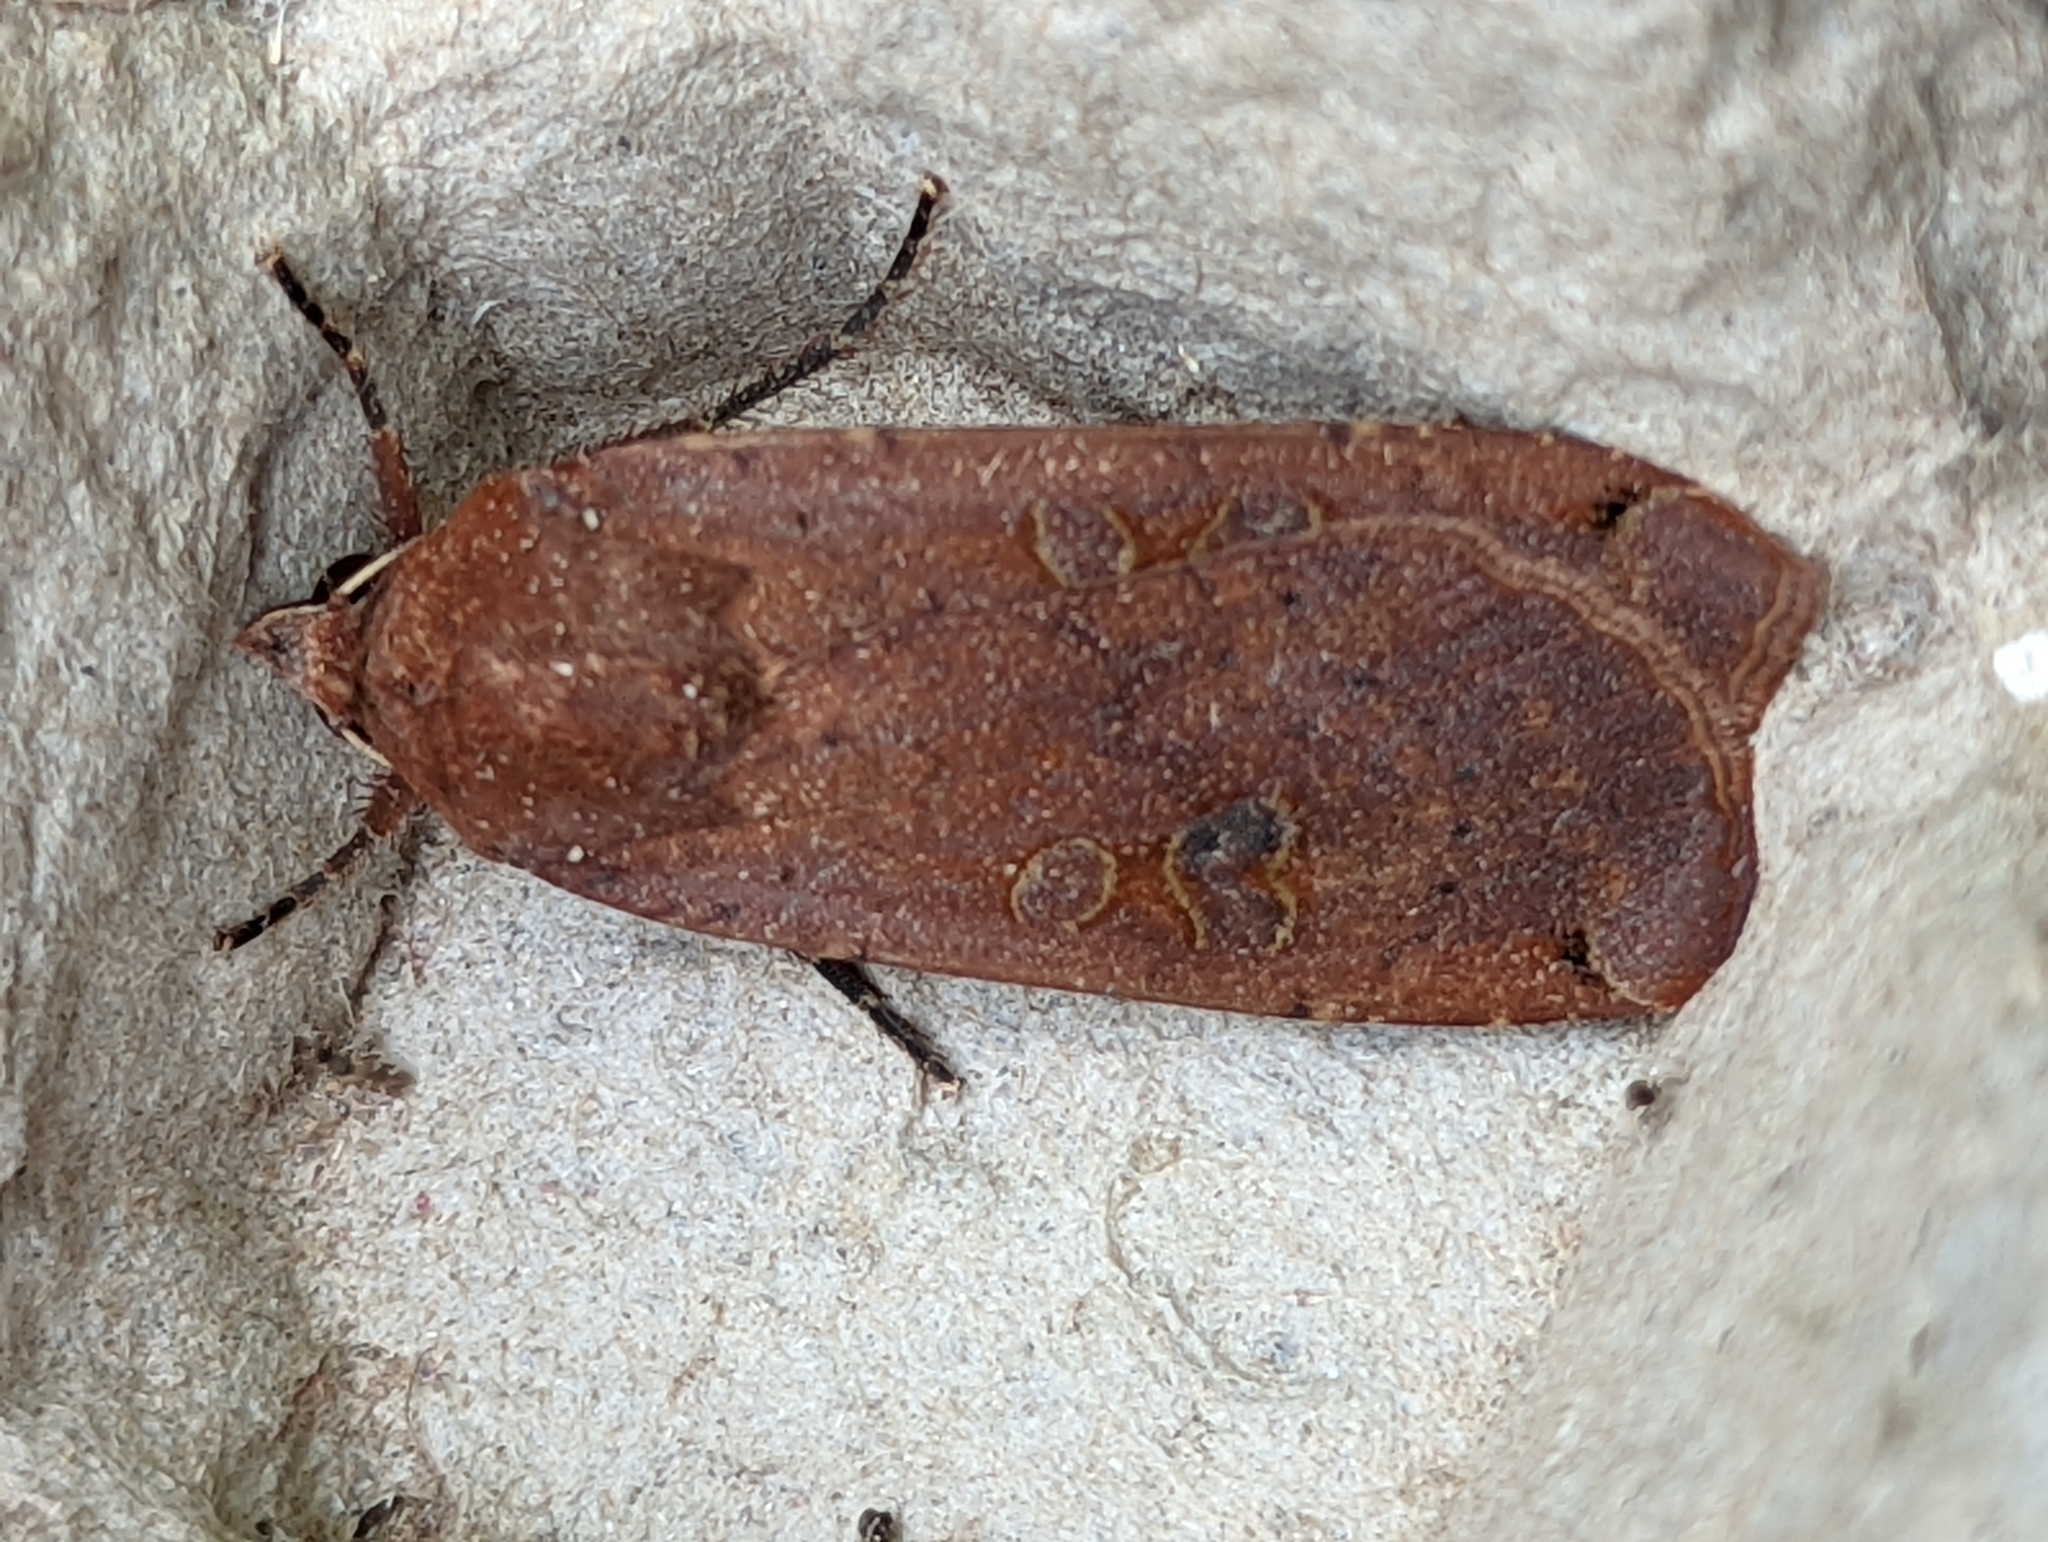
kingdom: Animalia
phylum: Arthropoda
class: Insecta
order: Lepidoptera
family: Noctuidae
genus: Noctua
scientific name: Noctua pronuba
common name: Large yellow underwing
